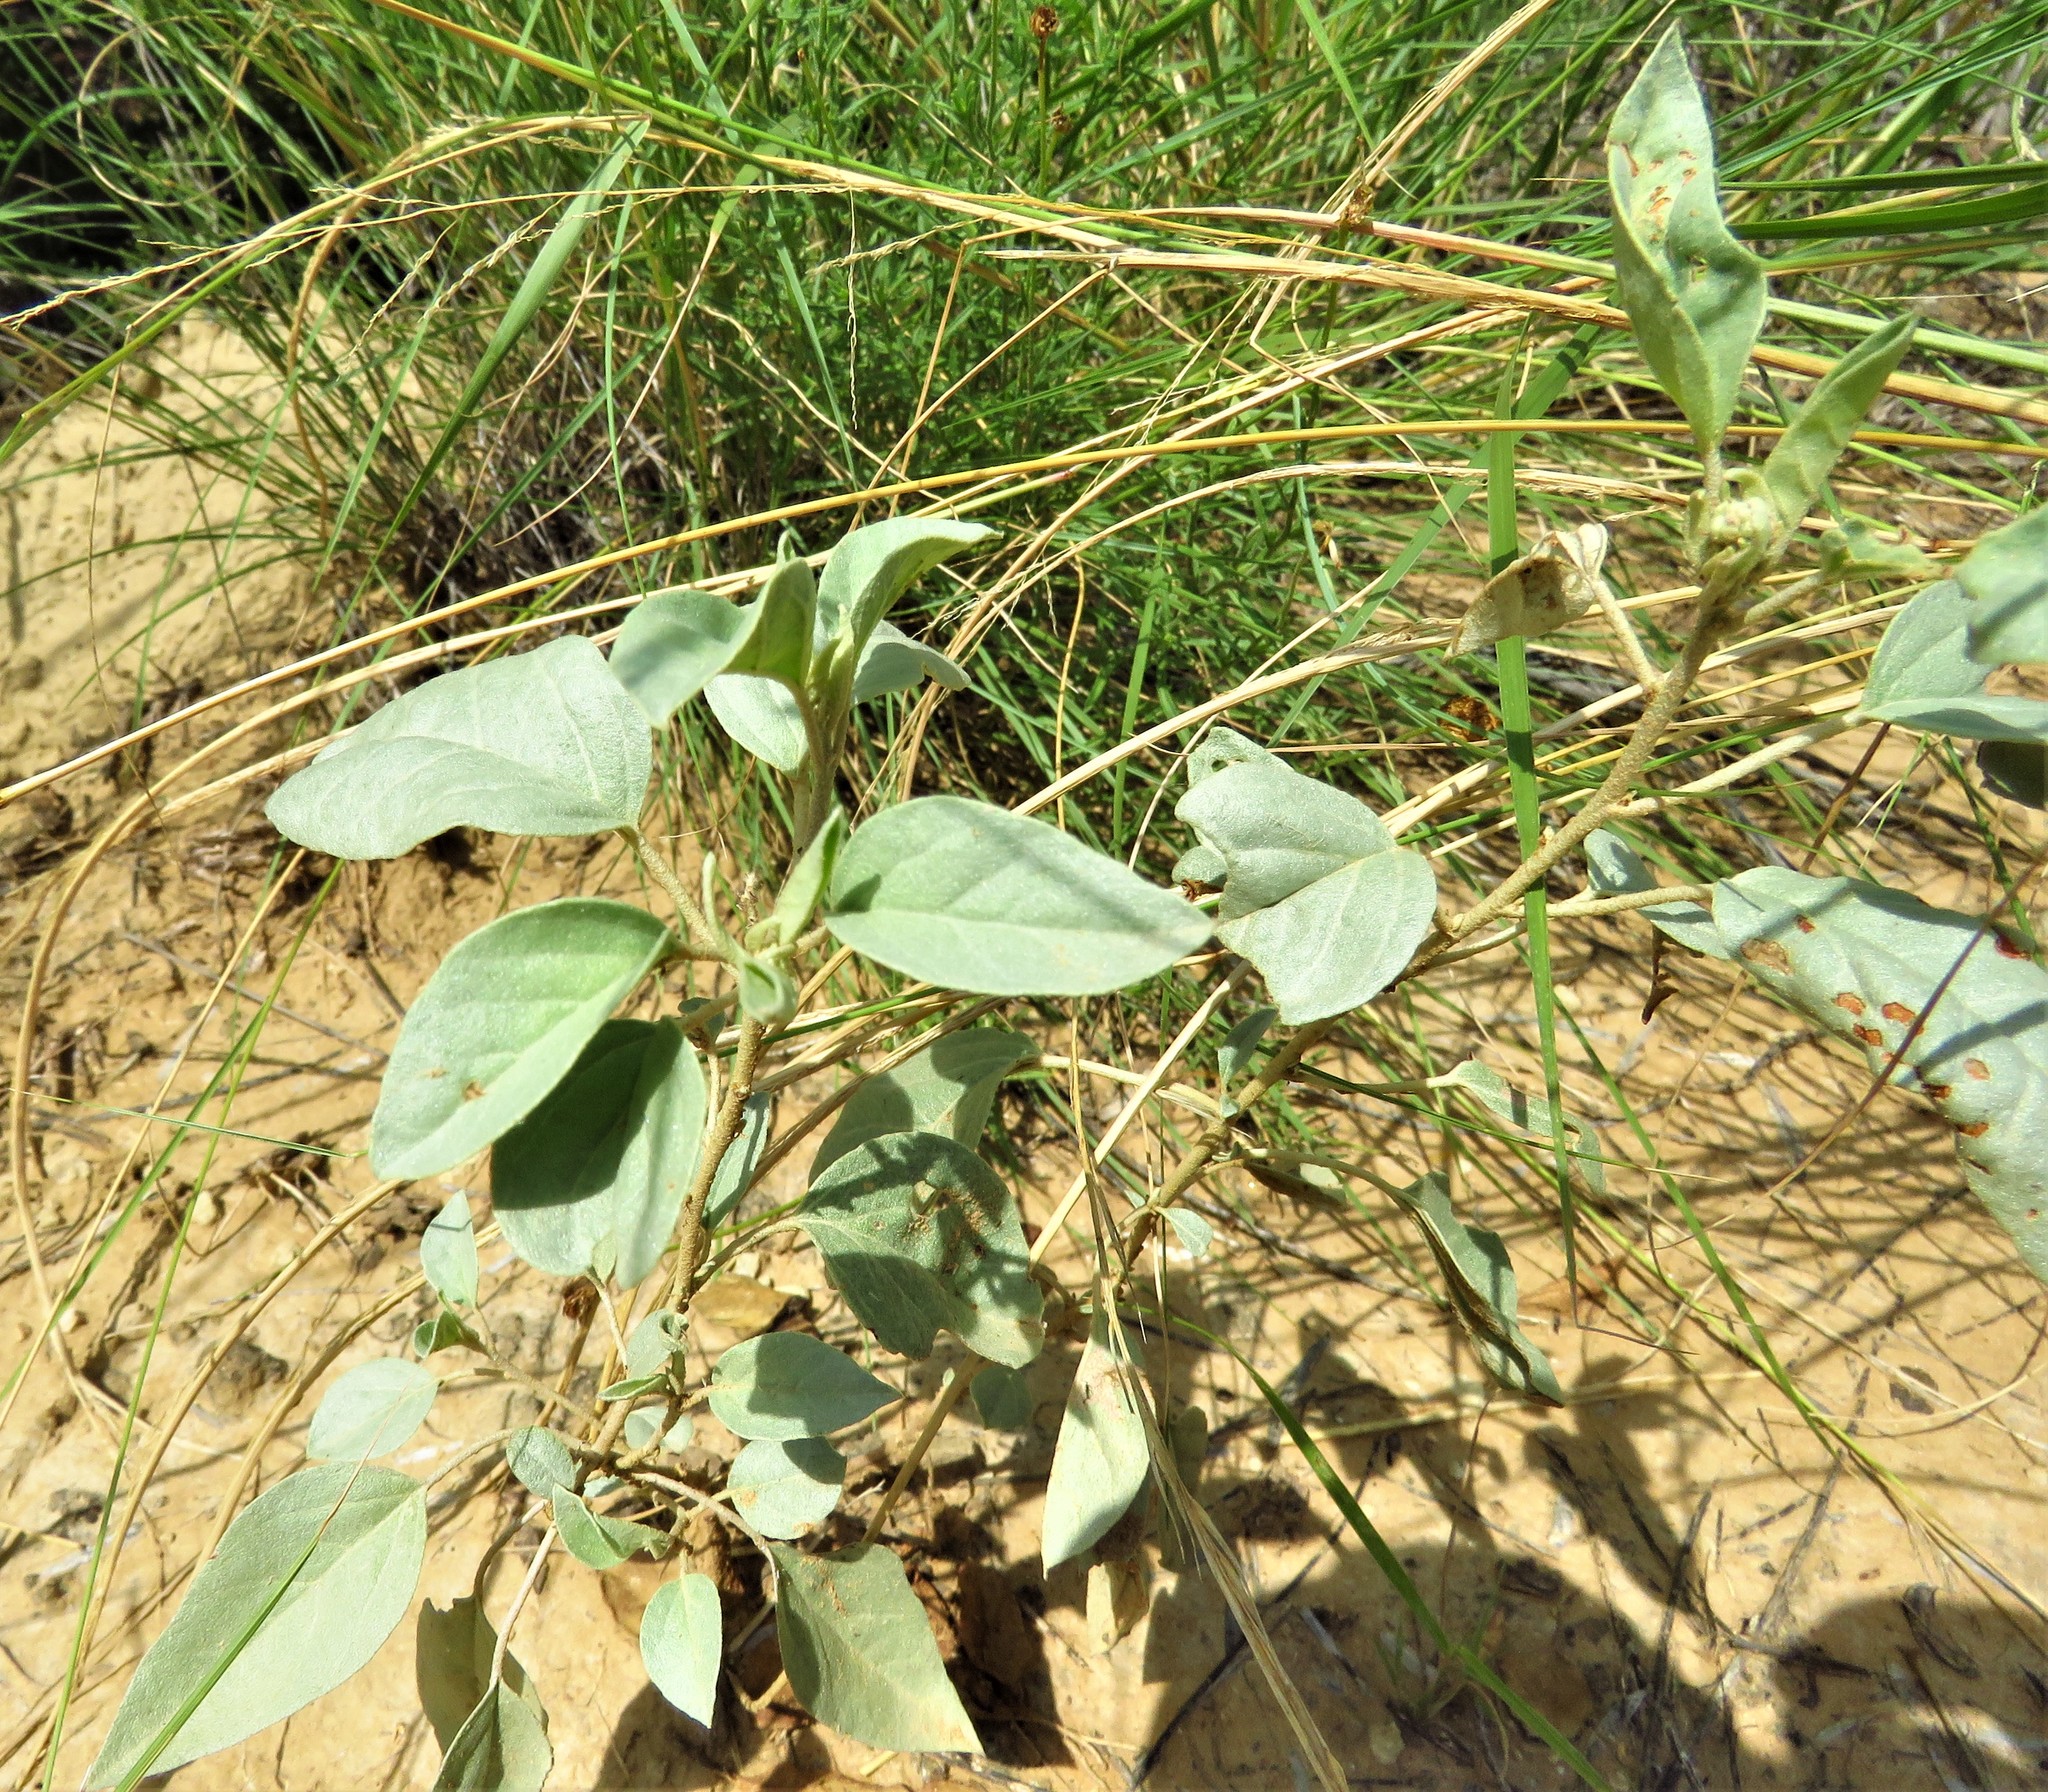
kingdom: Plantae
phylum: Tracheophyta
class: Magnoliopsida
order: Malpighiales
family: Euphorbiaceae
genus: Croton
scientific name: Croton pottsii
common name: Leatherweed
